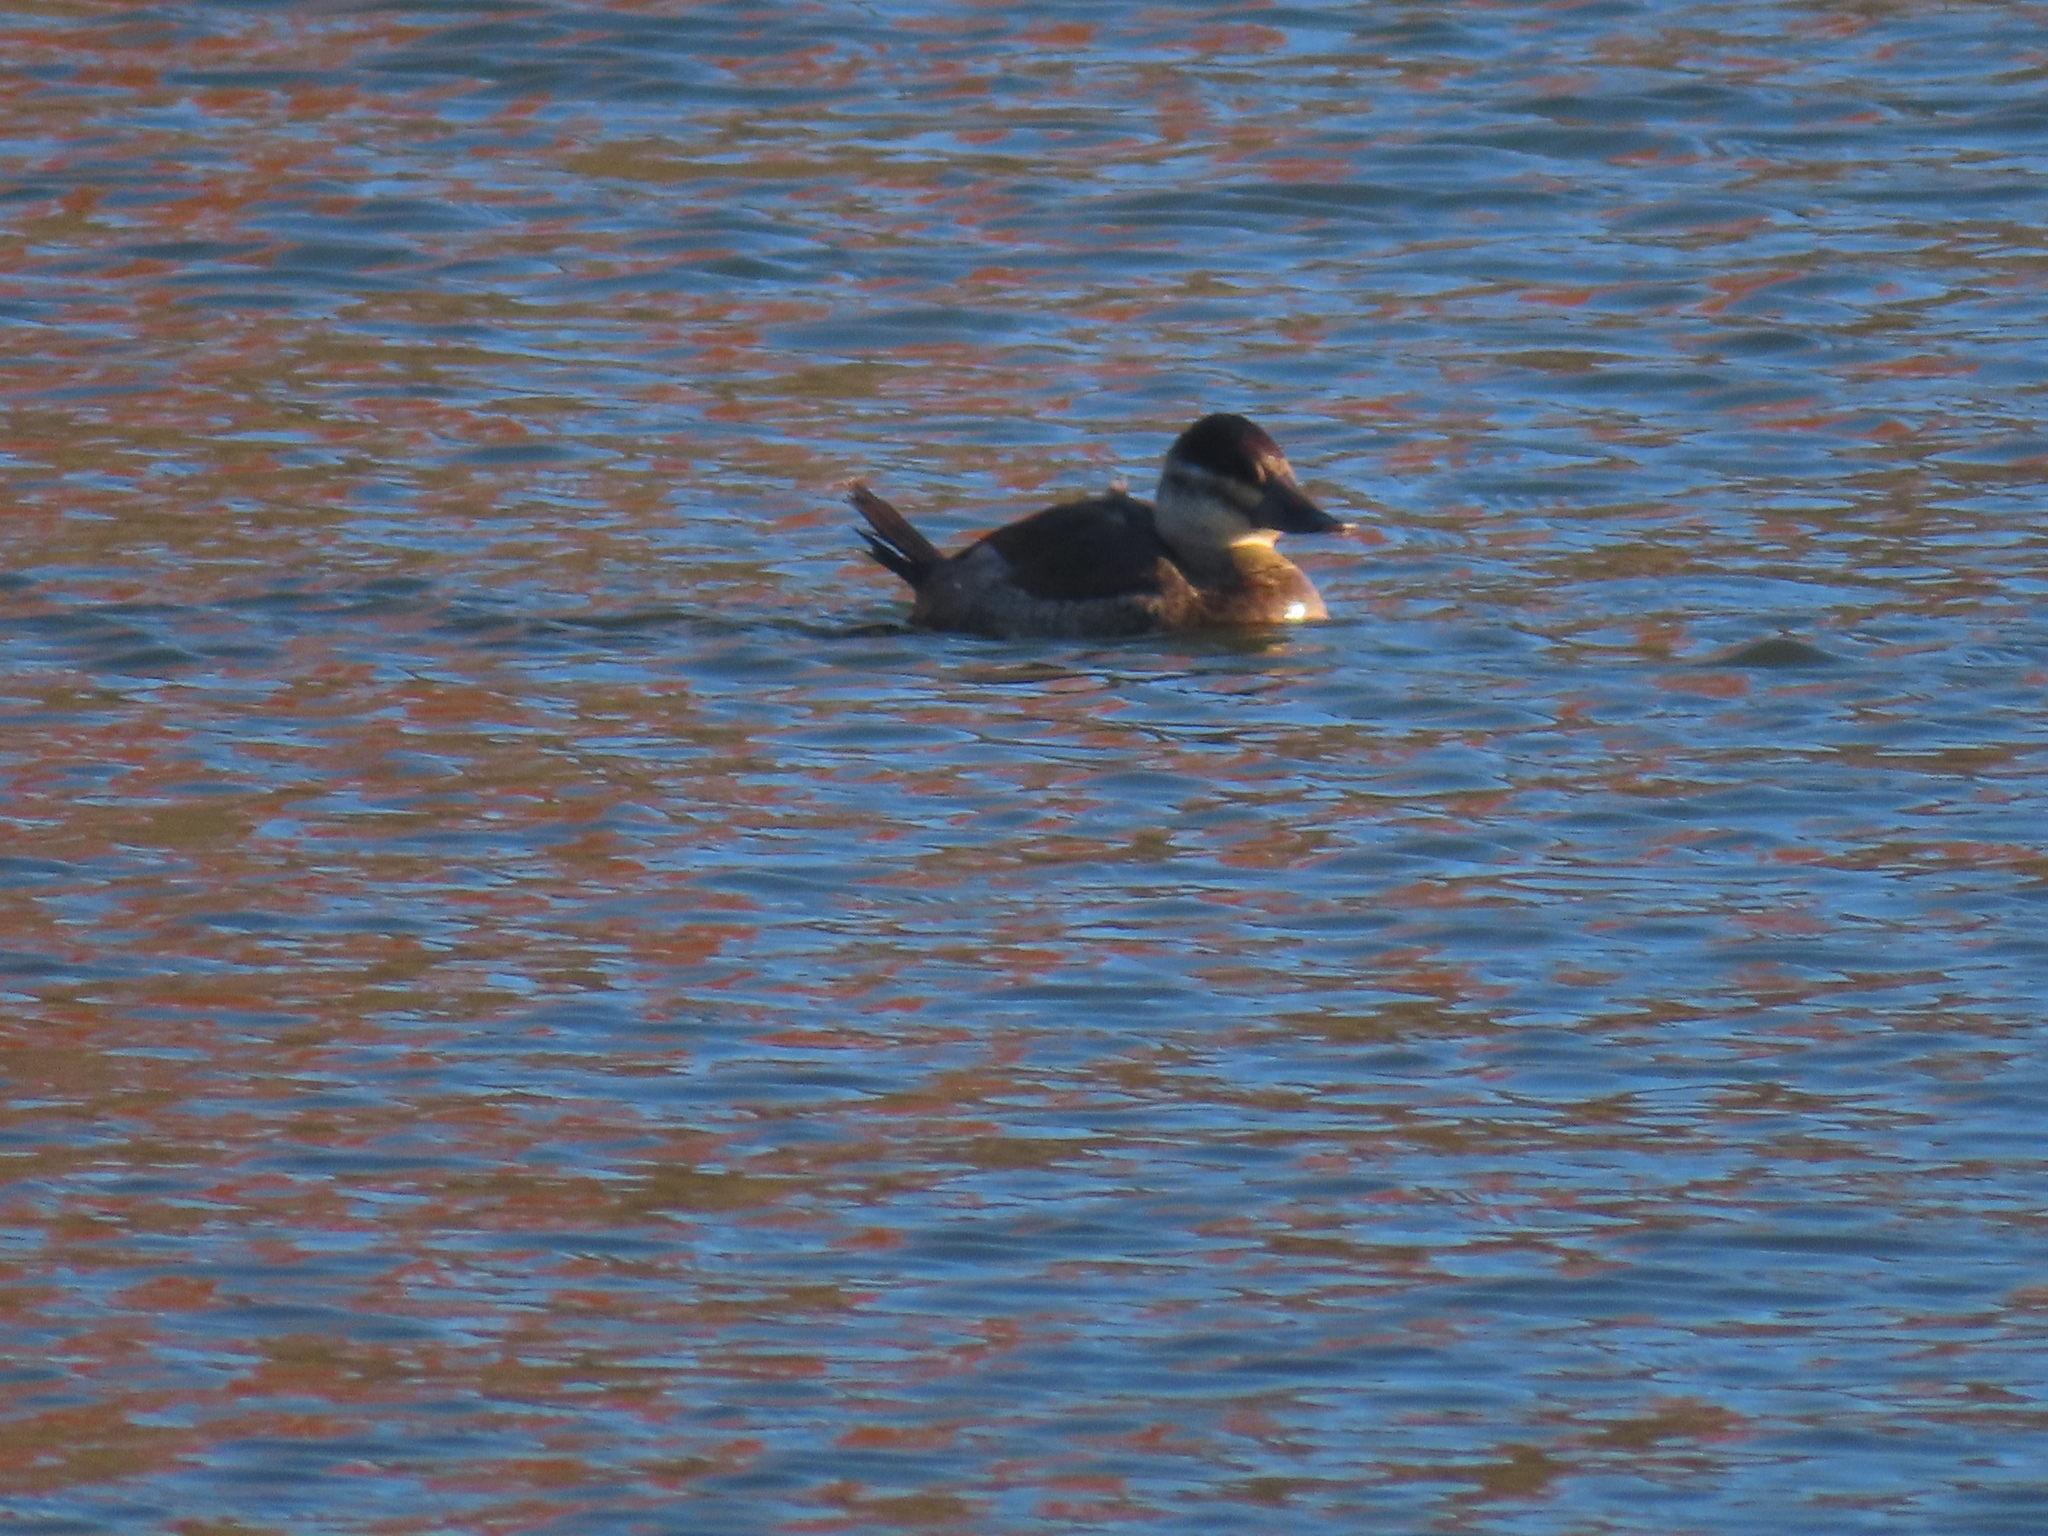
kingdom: Animalia
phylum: Chordata
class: Aves
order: Anseriformes
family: Anatidae
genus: Oxyura
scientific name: Oxyura jamaicensis
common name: Ruddy duck
